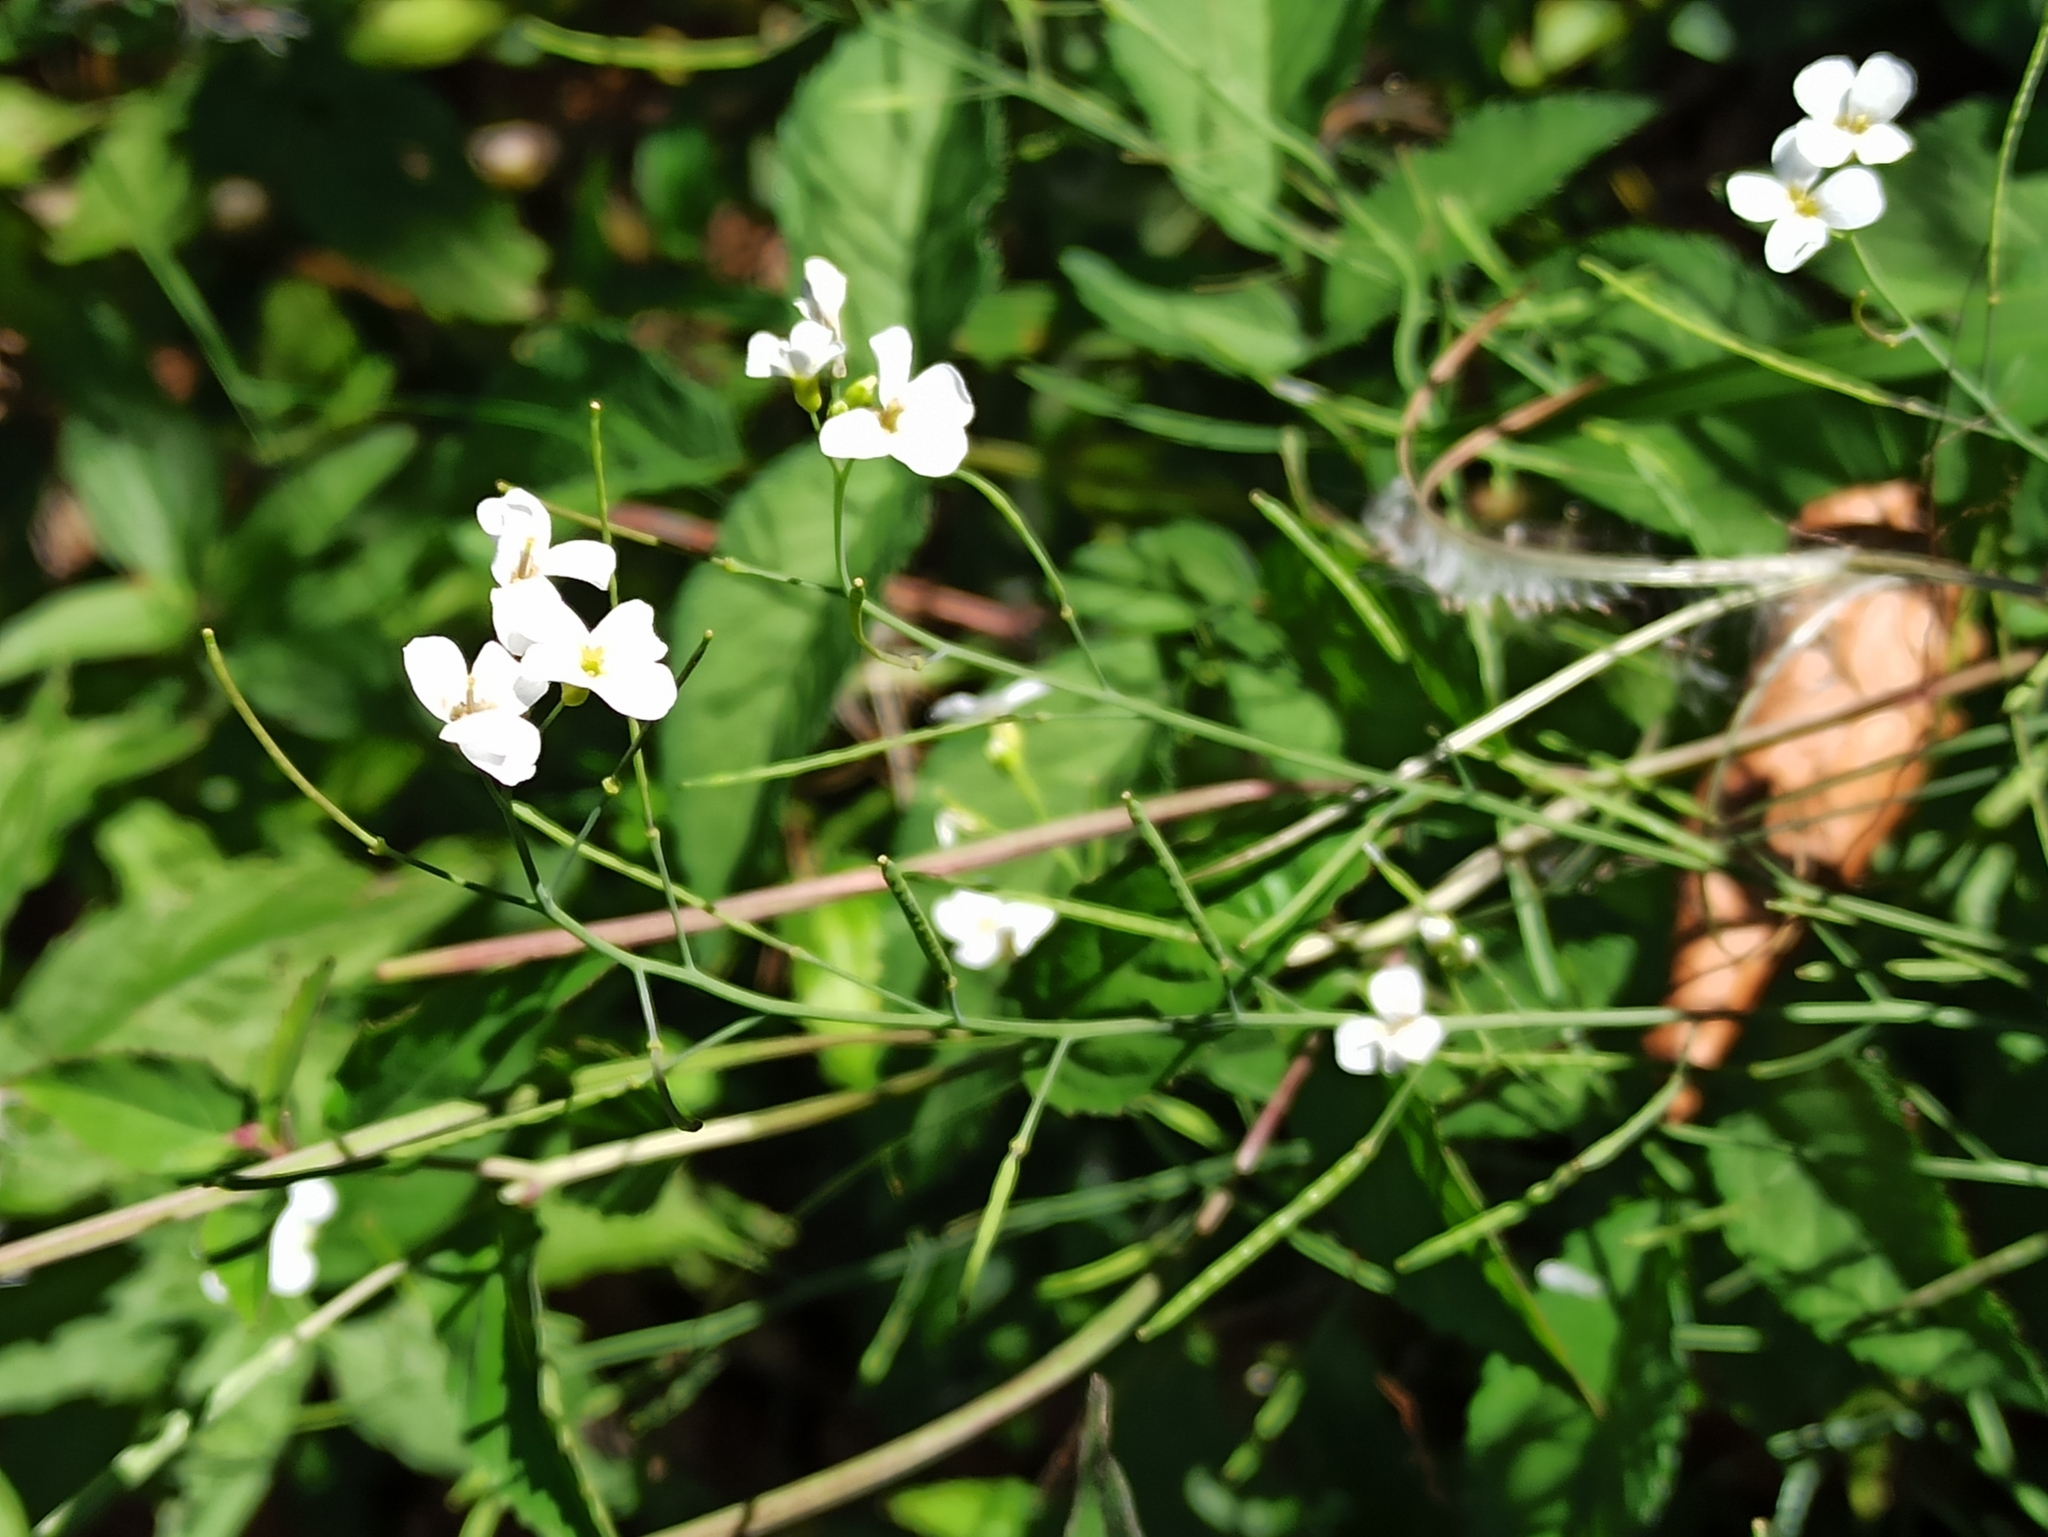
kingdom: Plantae
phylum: Tracheophyta
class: Magnoliopsida
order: Brassicales
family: Brassicaceae
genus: Arabidopsis
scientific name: Arabidopsis arenosa
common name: Sand rock-cress
